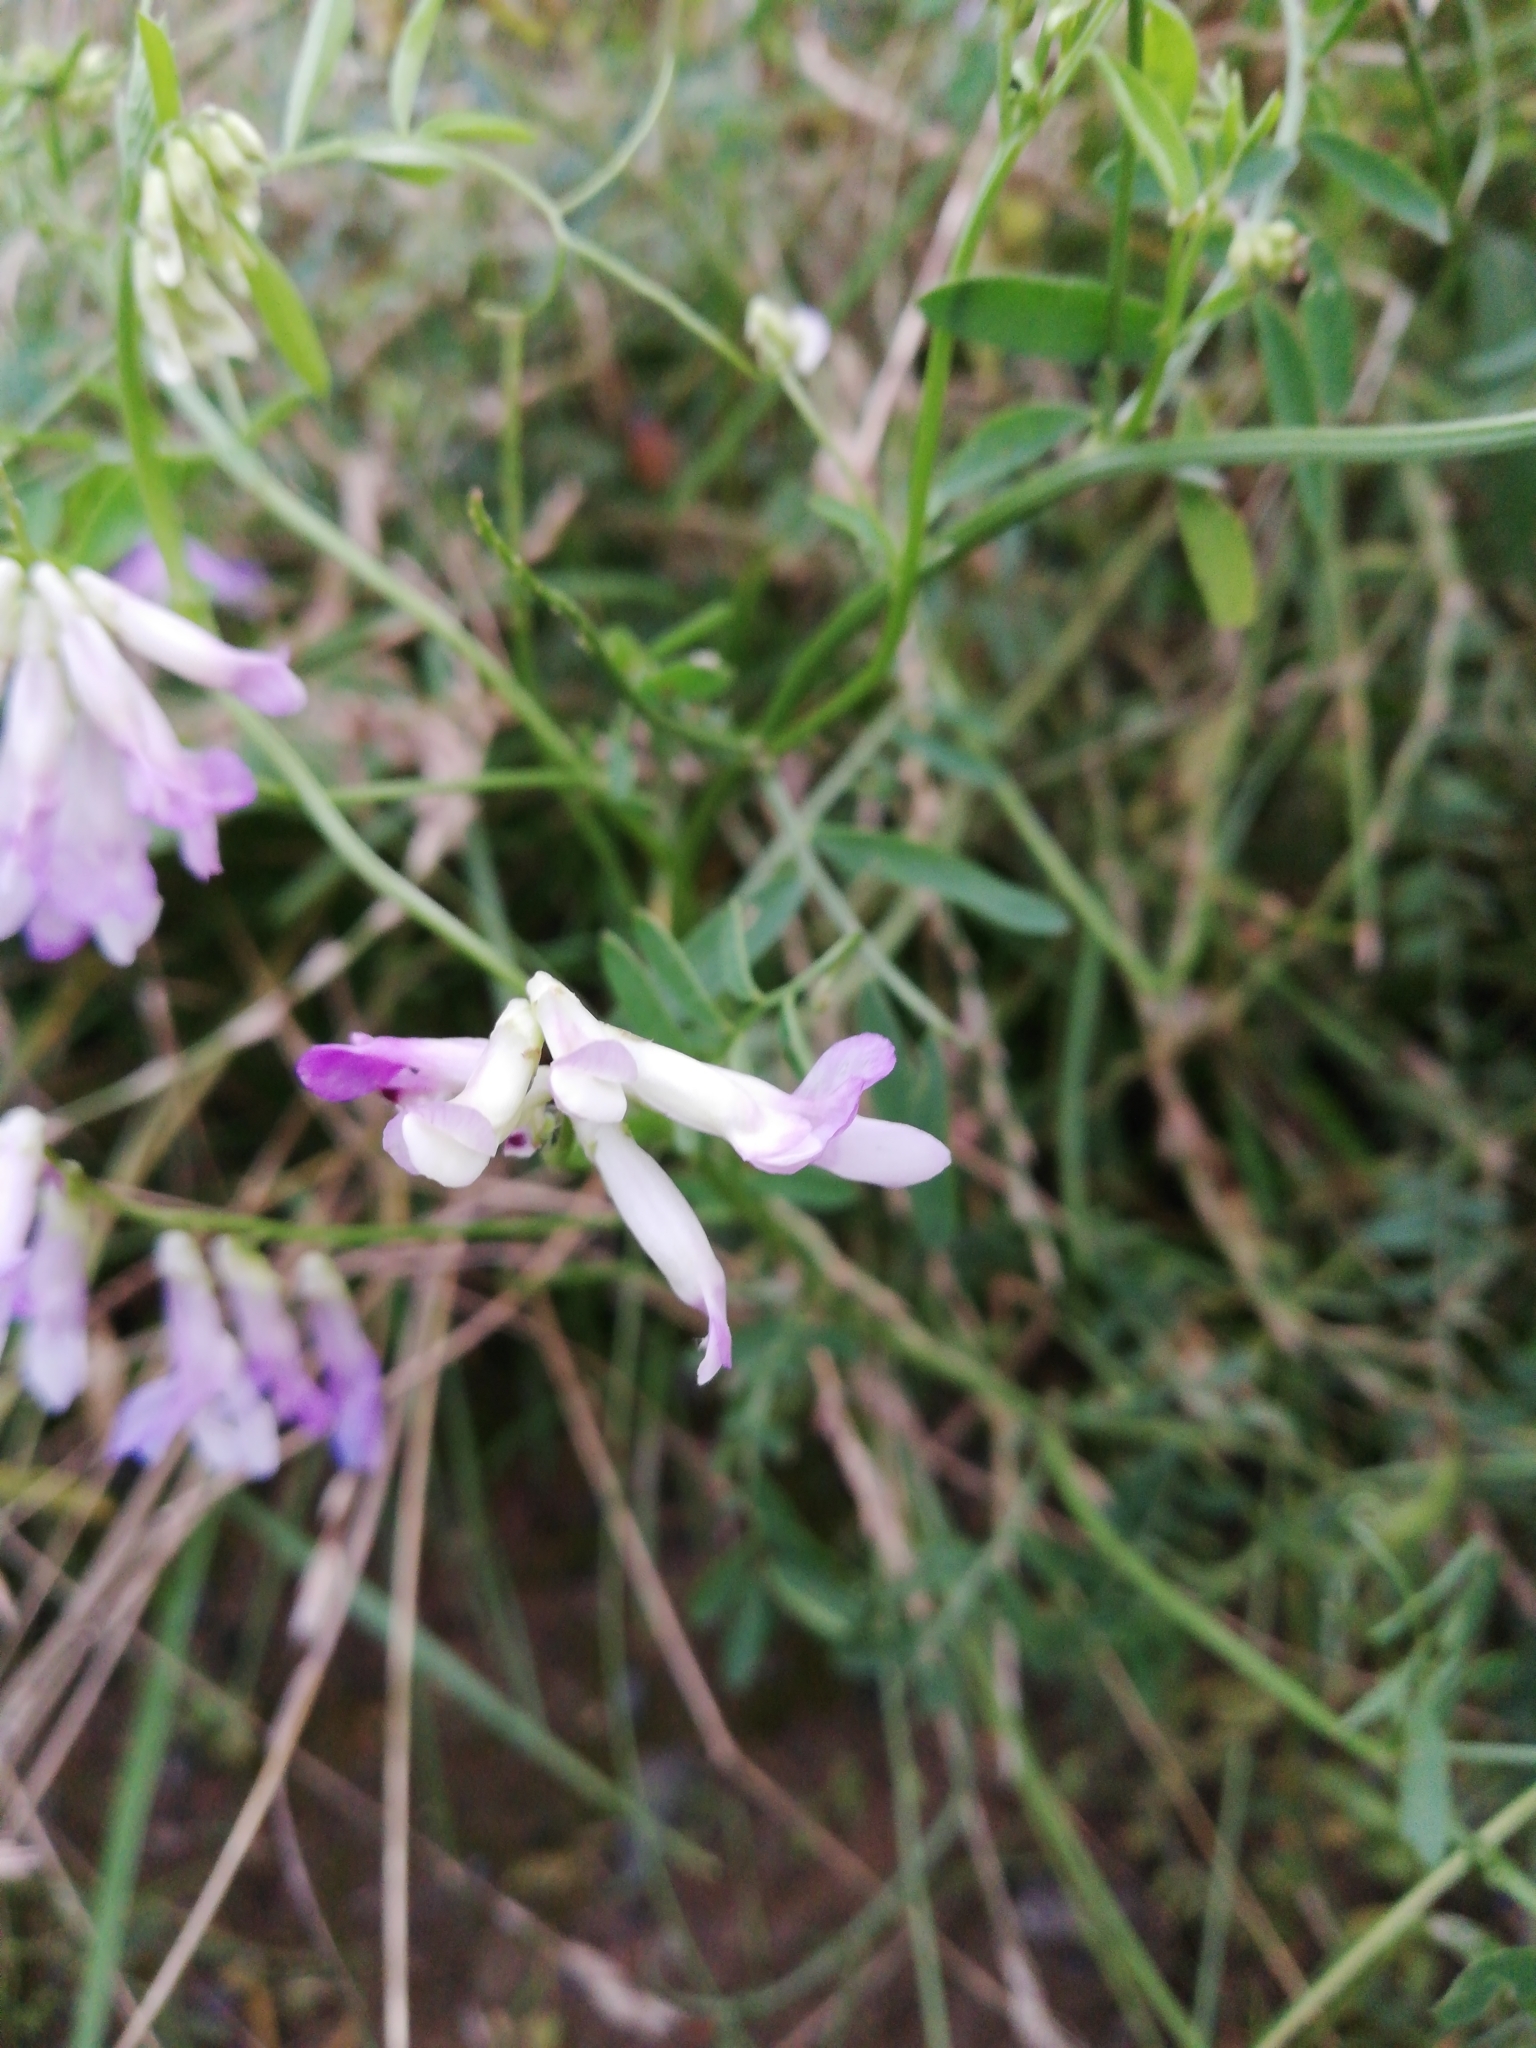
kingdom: Plantae
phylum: Tracheophyta
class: Magnoliopsida
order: Fabales
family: Fabaceae
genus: Vicia
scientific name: Vicia villosa
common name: Fodder vetch
